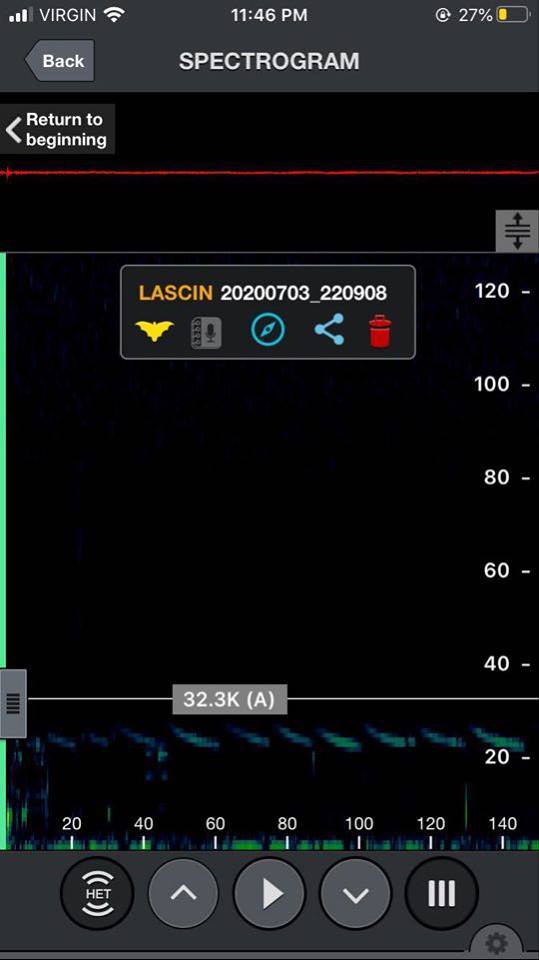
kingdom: Animalia
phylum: Chordata
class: Mammalia
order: Chiroptera
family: Vespertilionidae
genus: Aeorestes
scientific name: Aeorestes cinereus
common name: North american hoary bat
